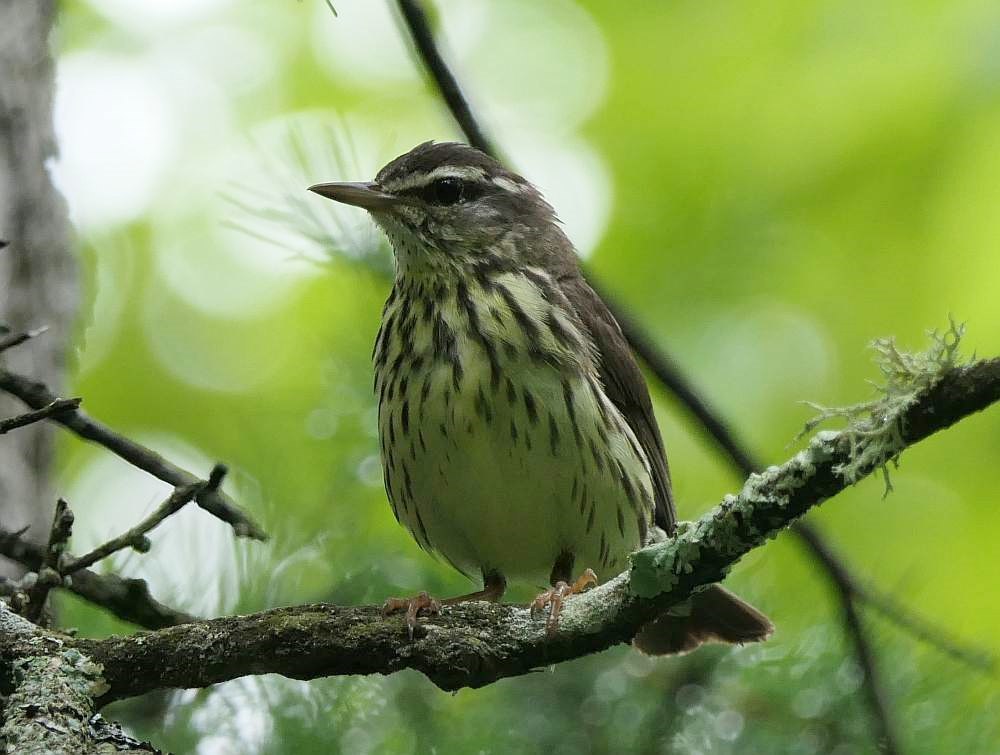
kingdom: Animalia
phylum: Chordata
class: Aves
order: Passeriformes
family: Parulidae
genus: Parkesia
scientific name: Parkesia noveboracensis
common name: Northern waterthrush
